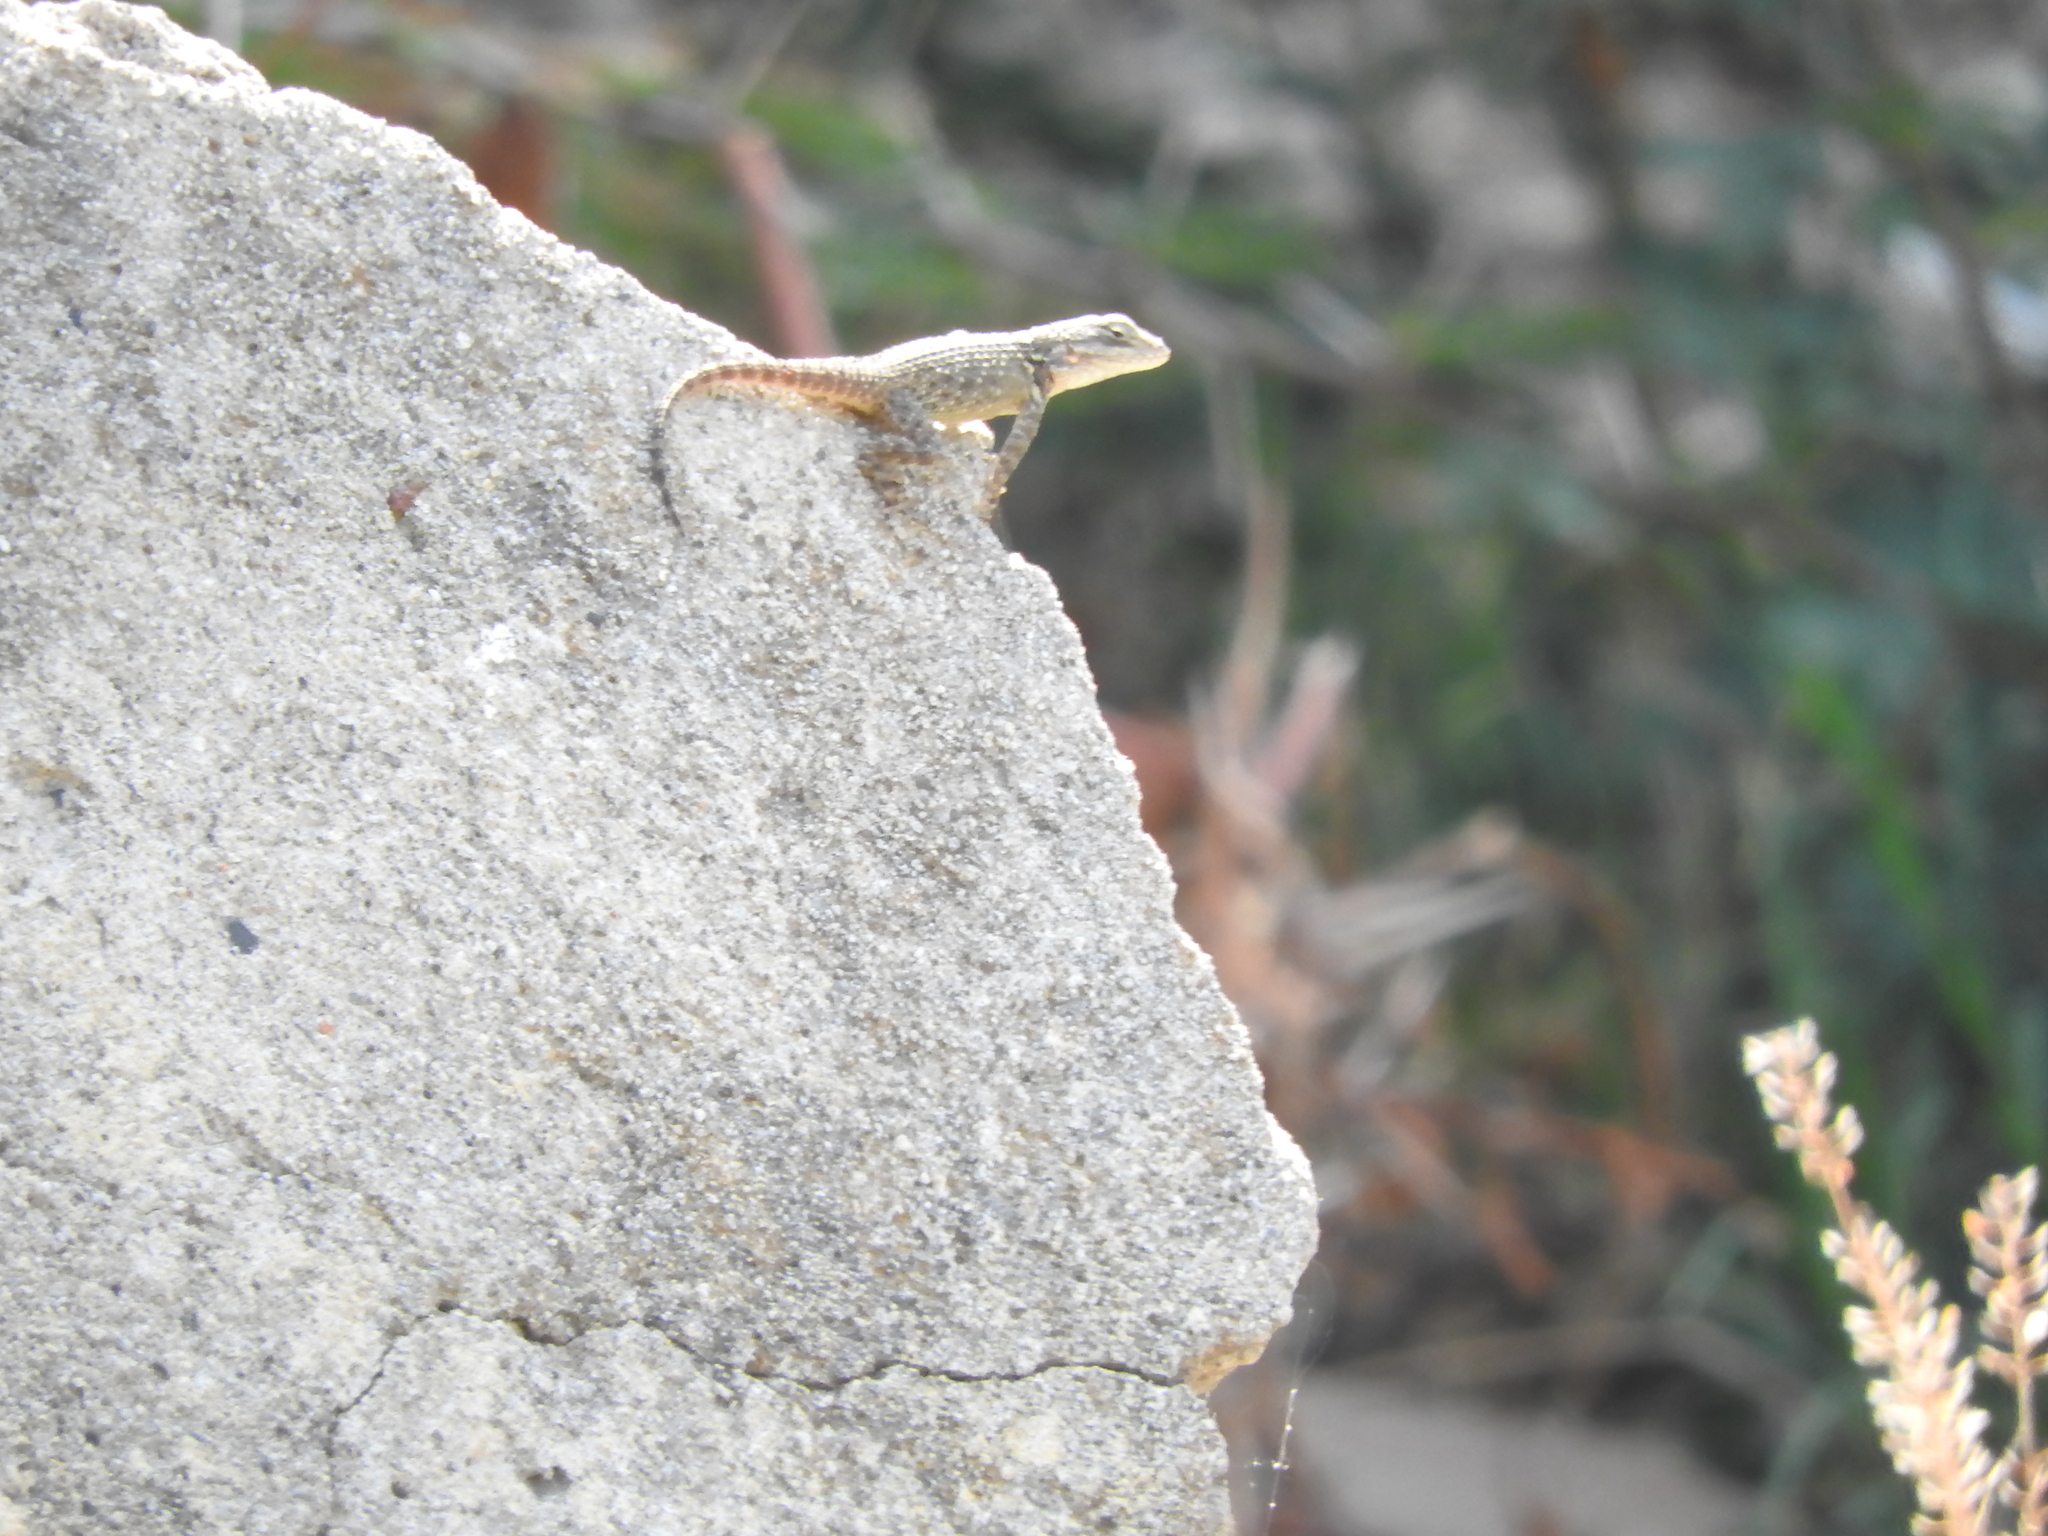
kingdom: Animalia
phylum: Chordata
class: Squamata
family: Phrynosomatidae
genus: Sceloporus
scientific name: Sceloporus torquatus
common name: Central plateau torquate lizard [melanogaster]
